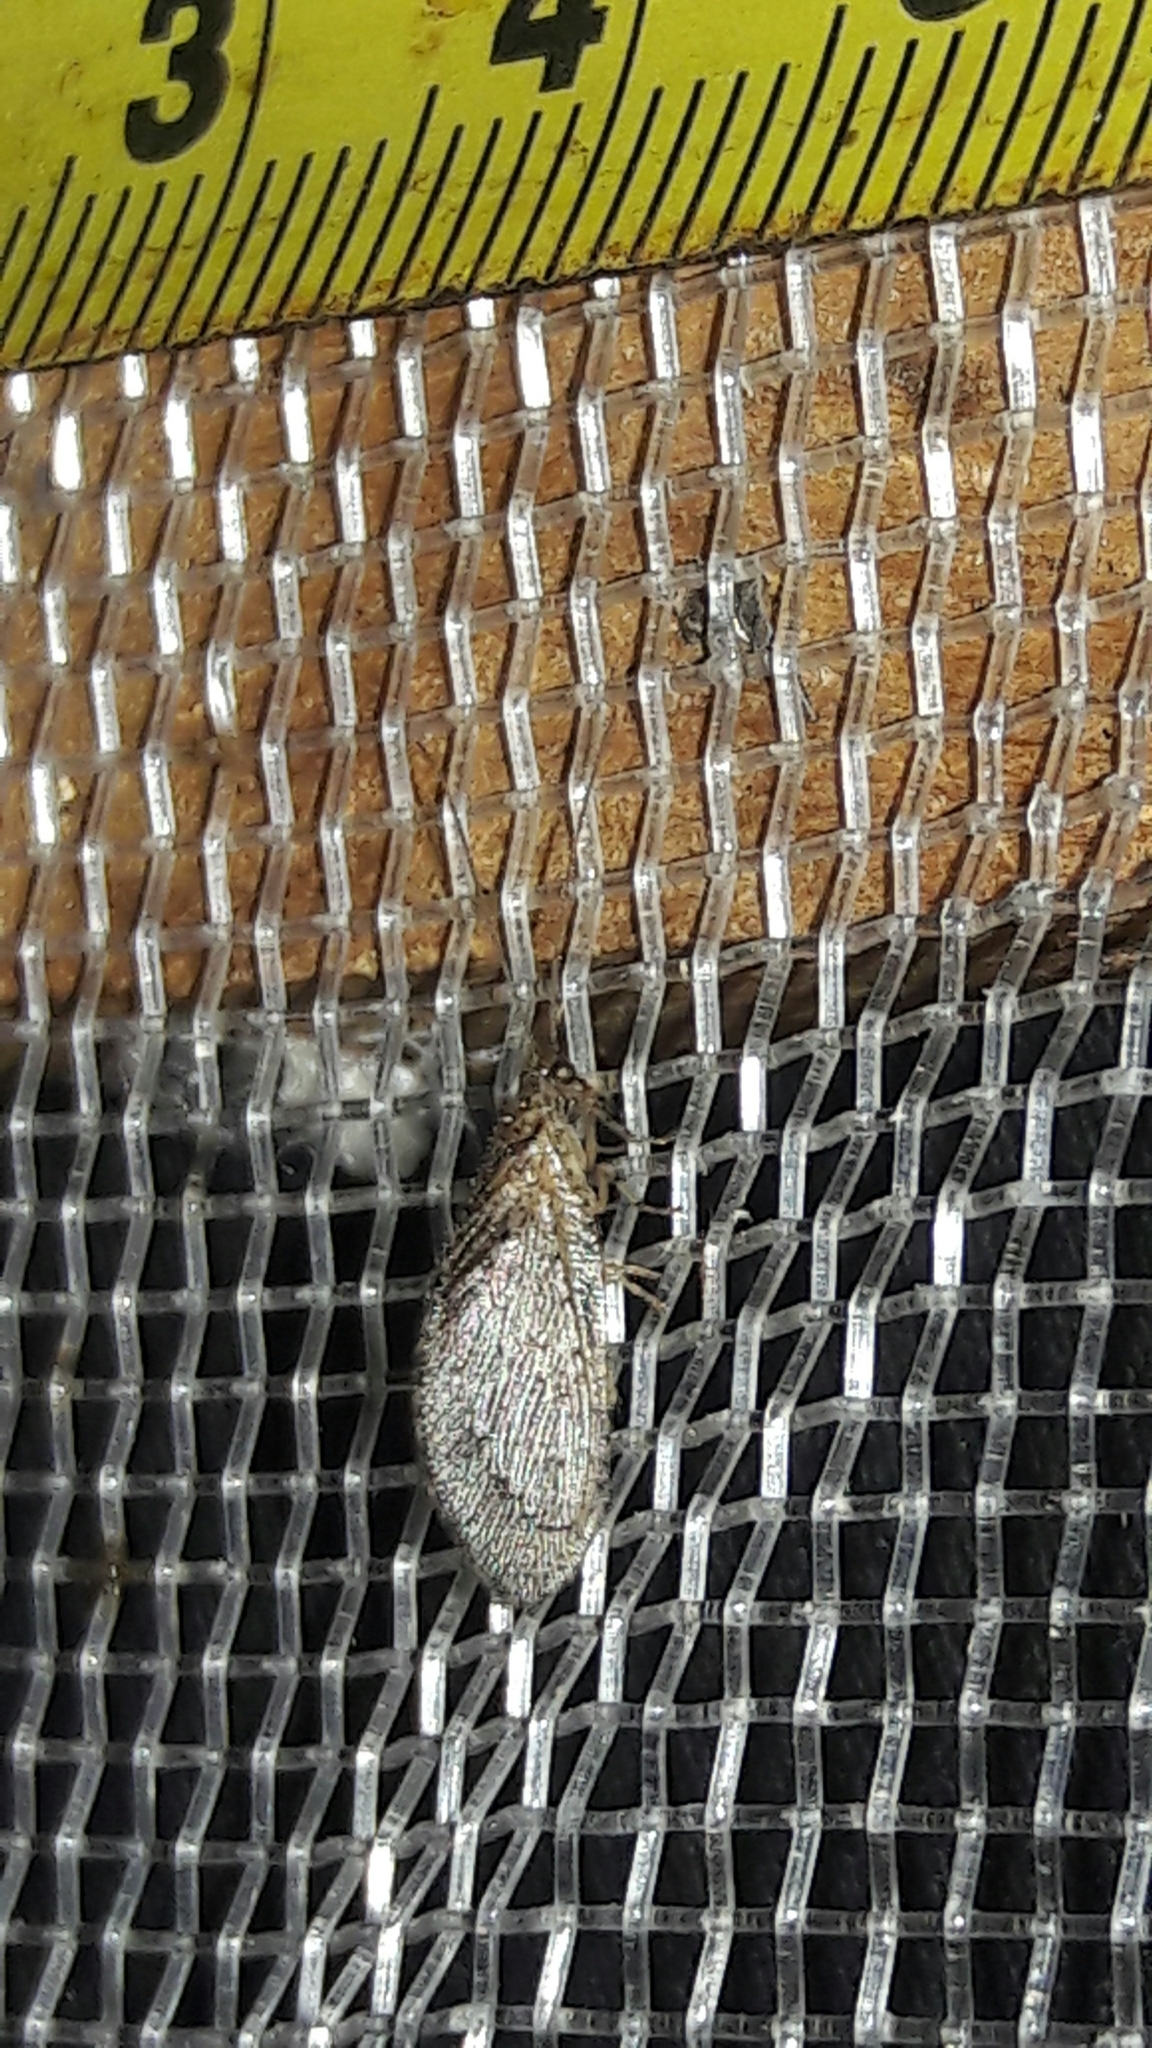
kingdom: Animalia
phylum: Arthropoda
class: Insecta
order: Neuroptera
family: Hemerobiidae
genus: Nusalala
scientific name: Nusalala tessellata
